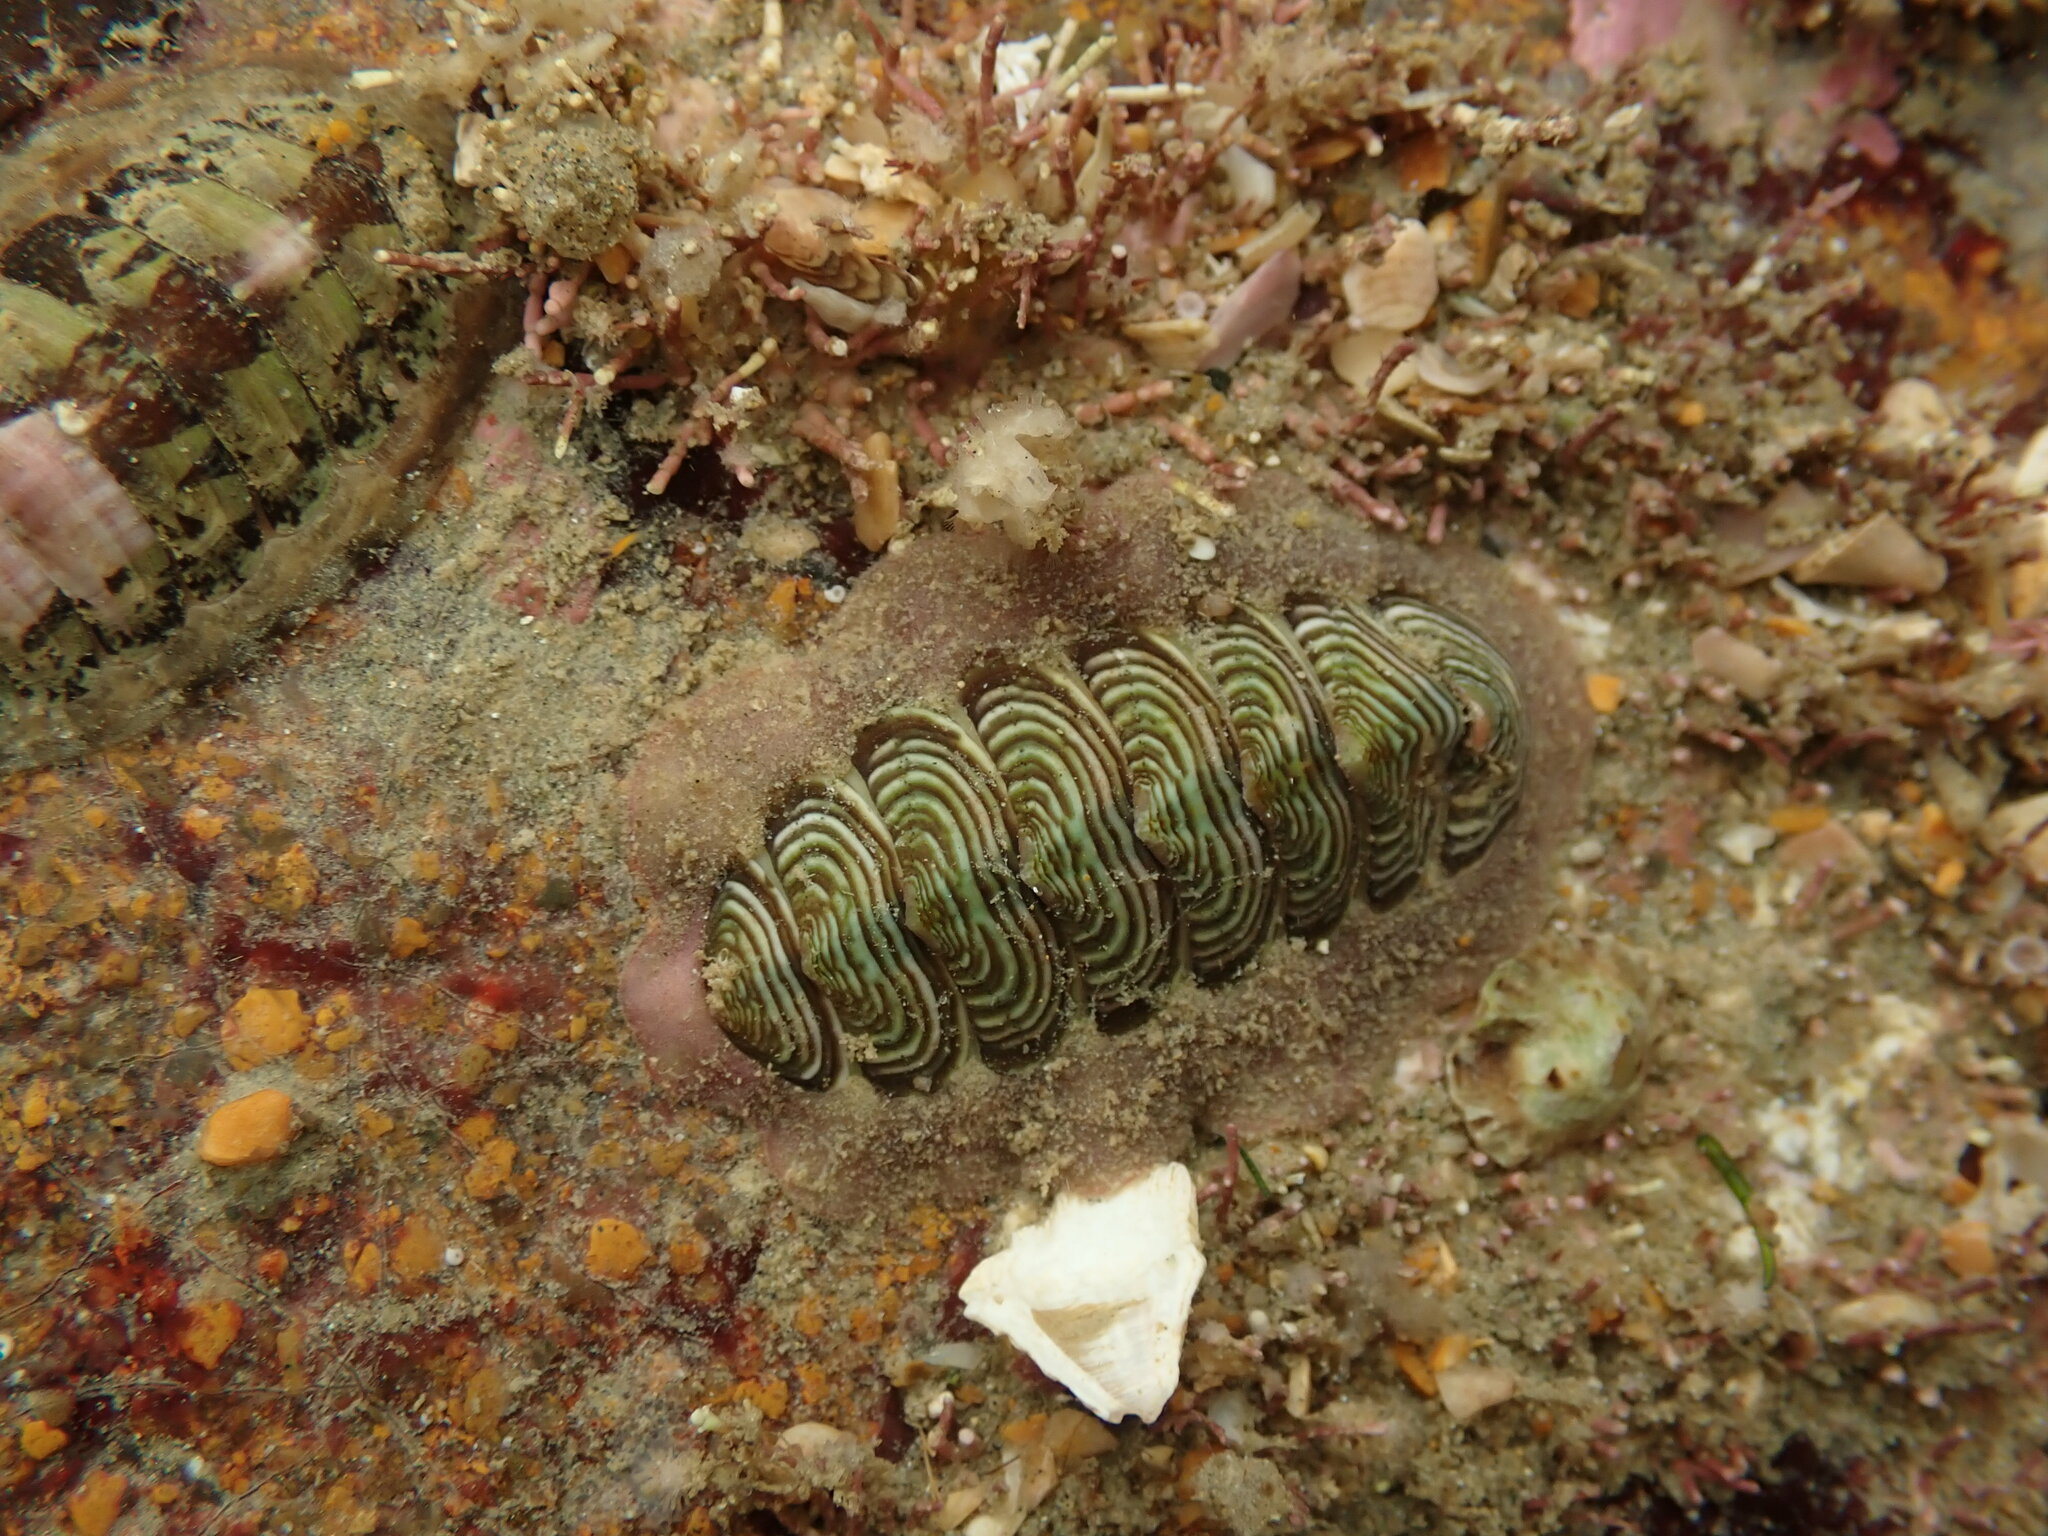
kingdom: Animalia
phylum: Mollusca
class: Polyplacophora
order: Chitonida
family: Chitonidae
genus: Onithochiton
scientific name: Onithochiton neglectus
